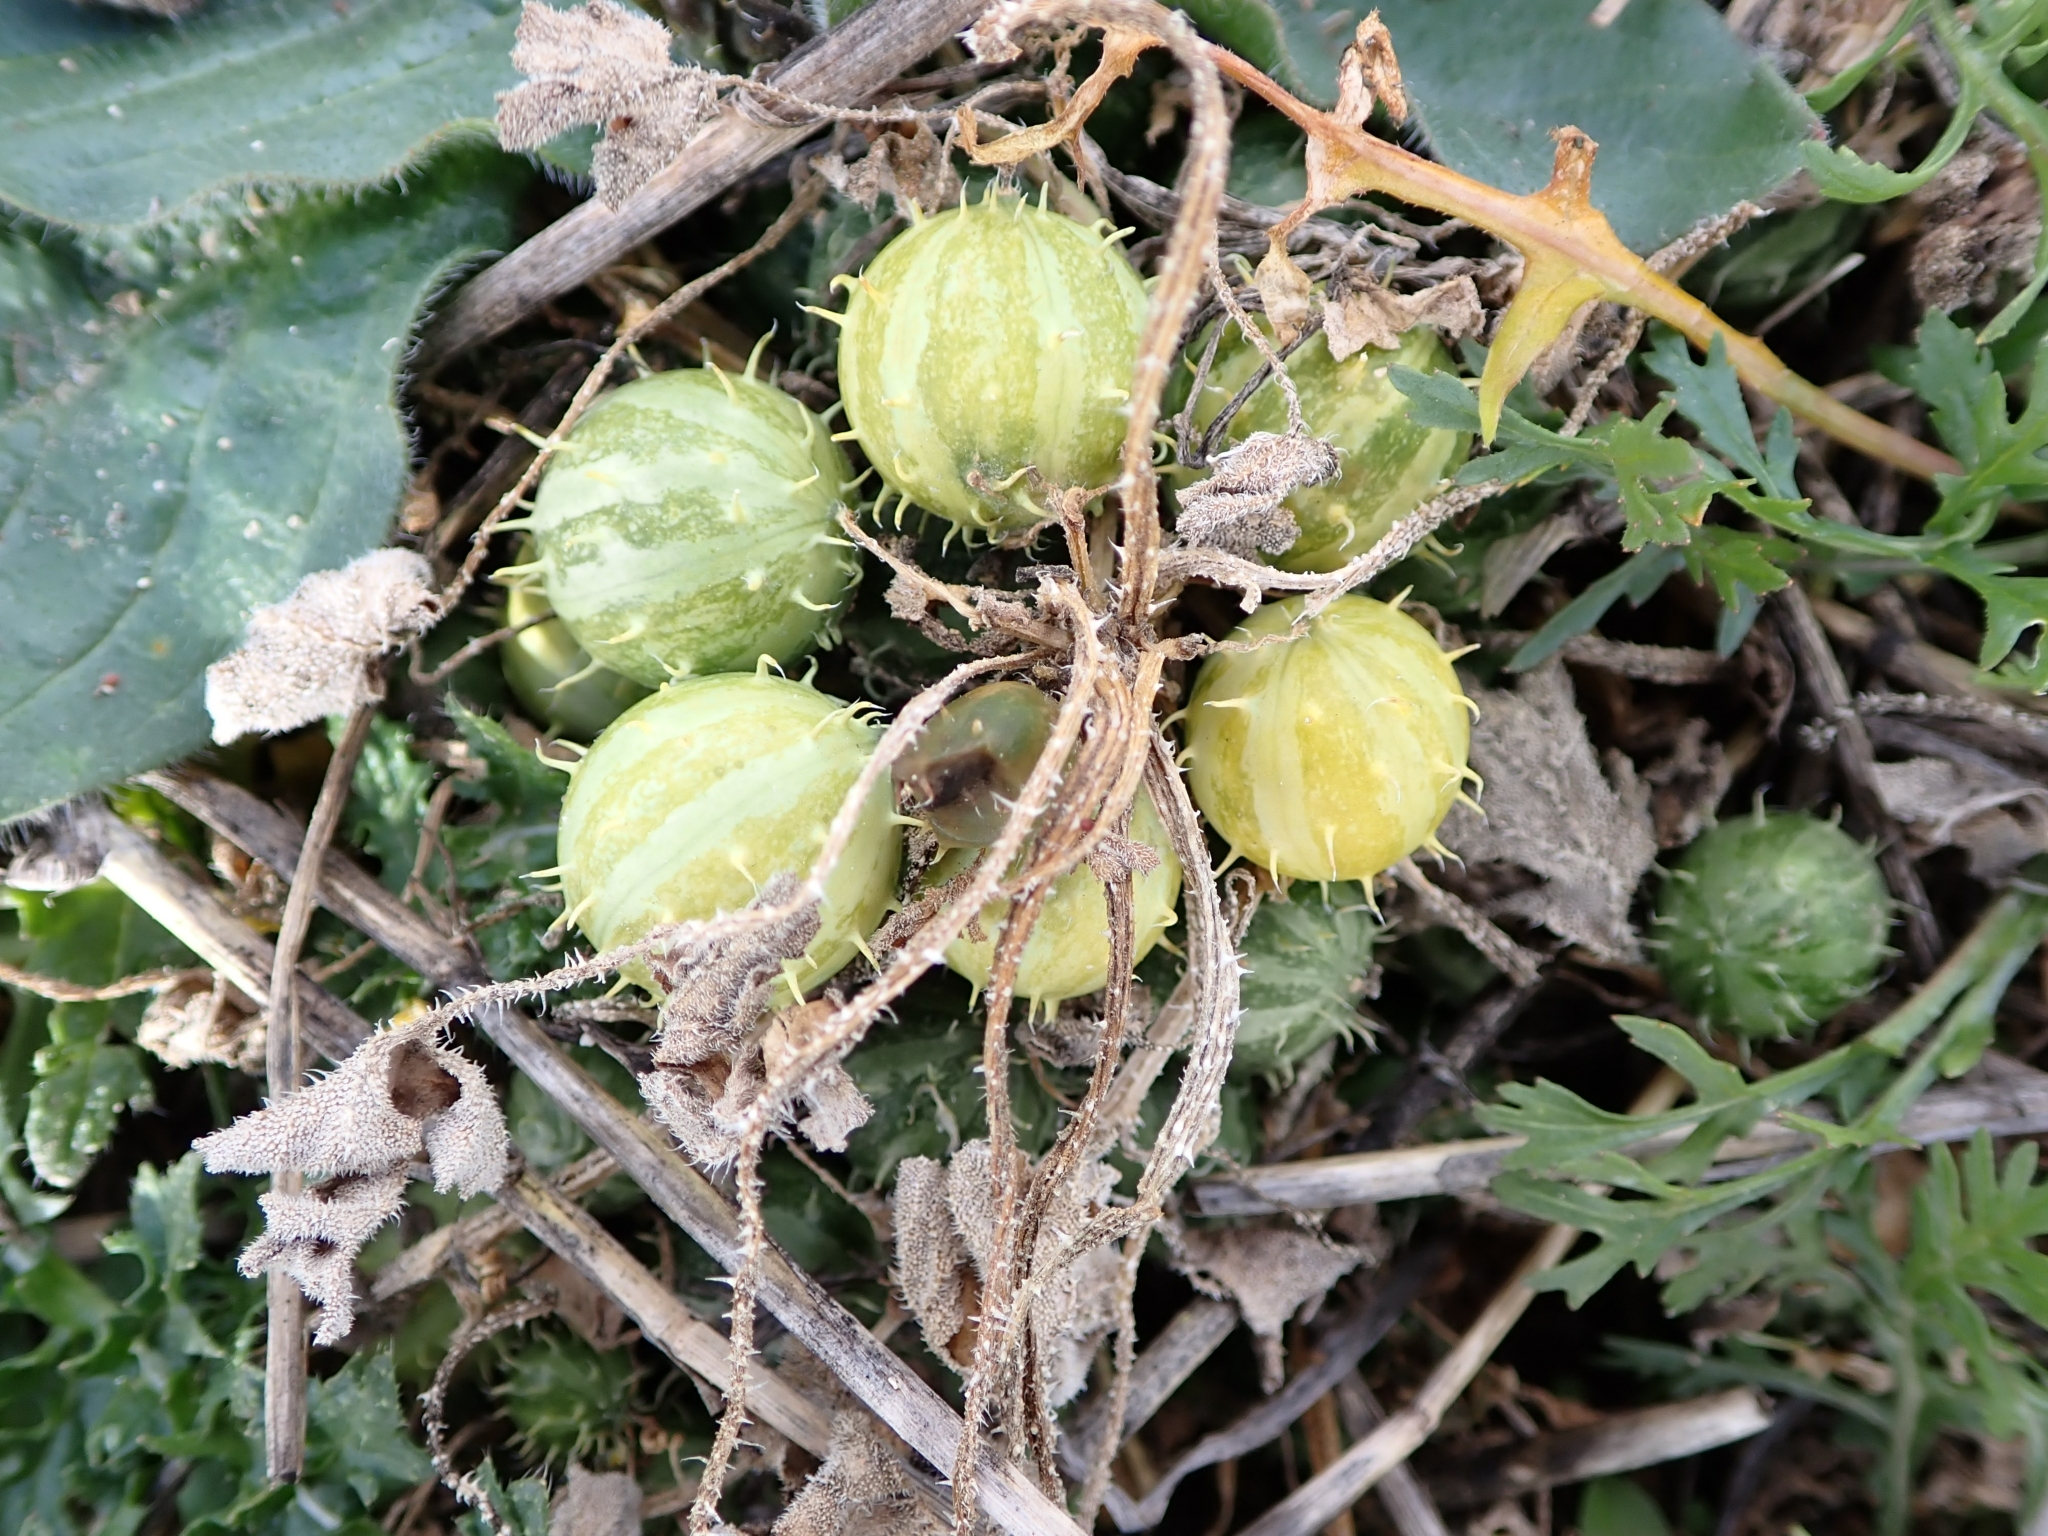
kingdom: Plantae
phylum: Tracheophyta
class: Magnoliopsida
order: Cucurbitales
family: Cucurbitaceae
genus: Cucumis
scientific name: Cucumis myriocarpus
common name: Gooseberry cucumber
